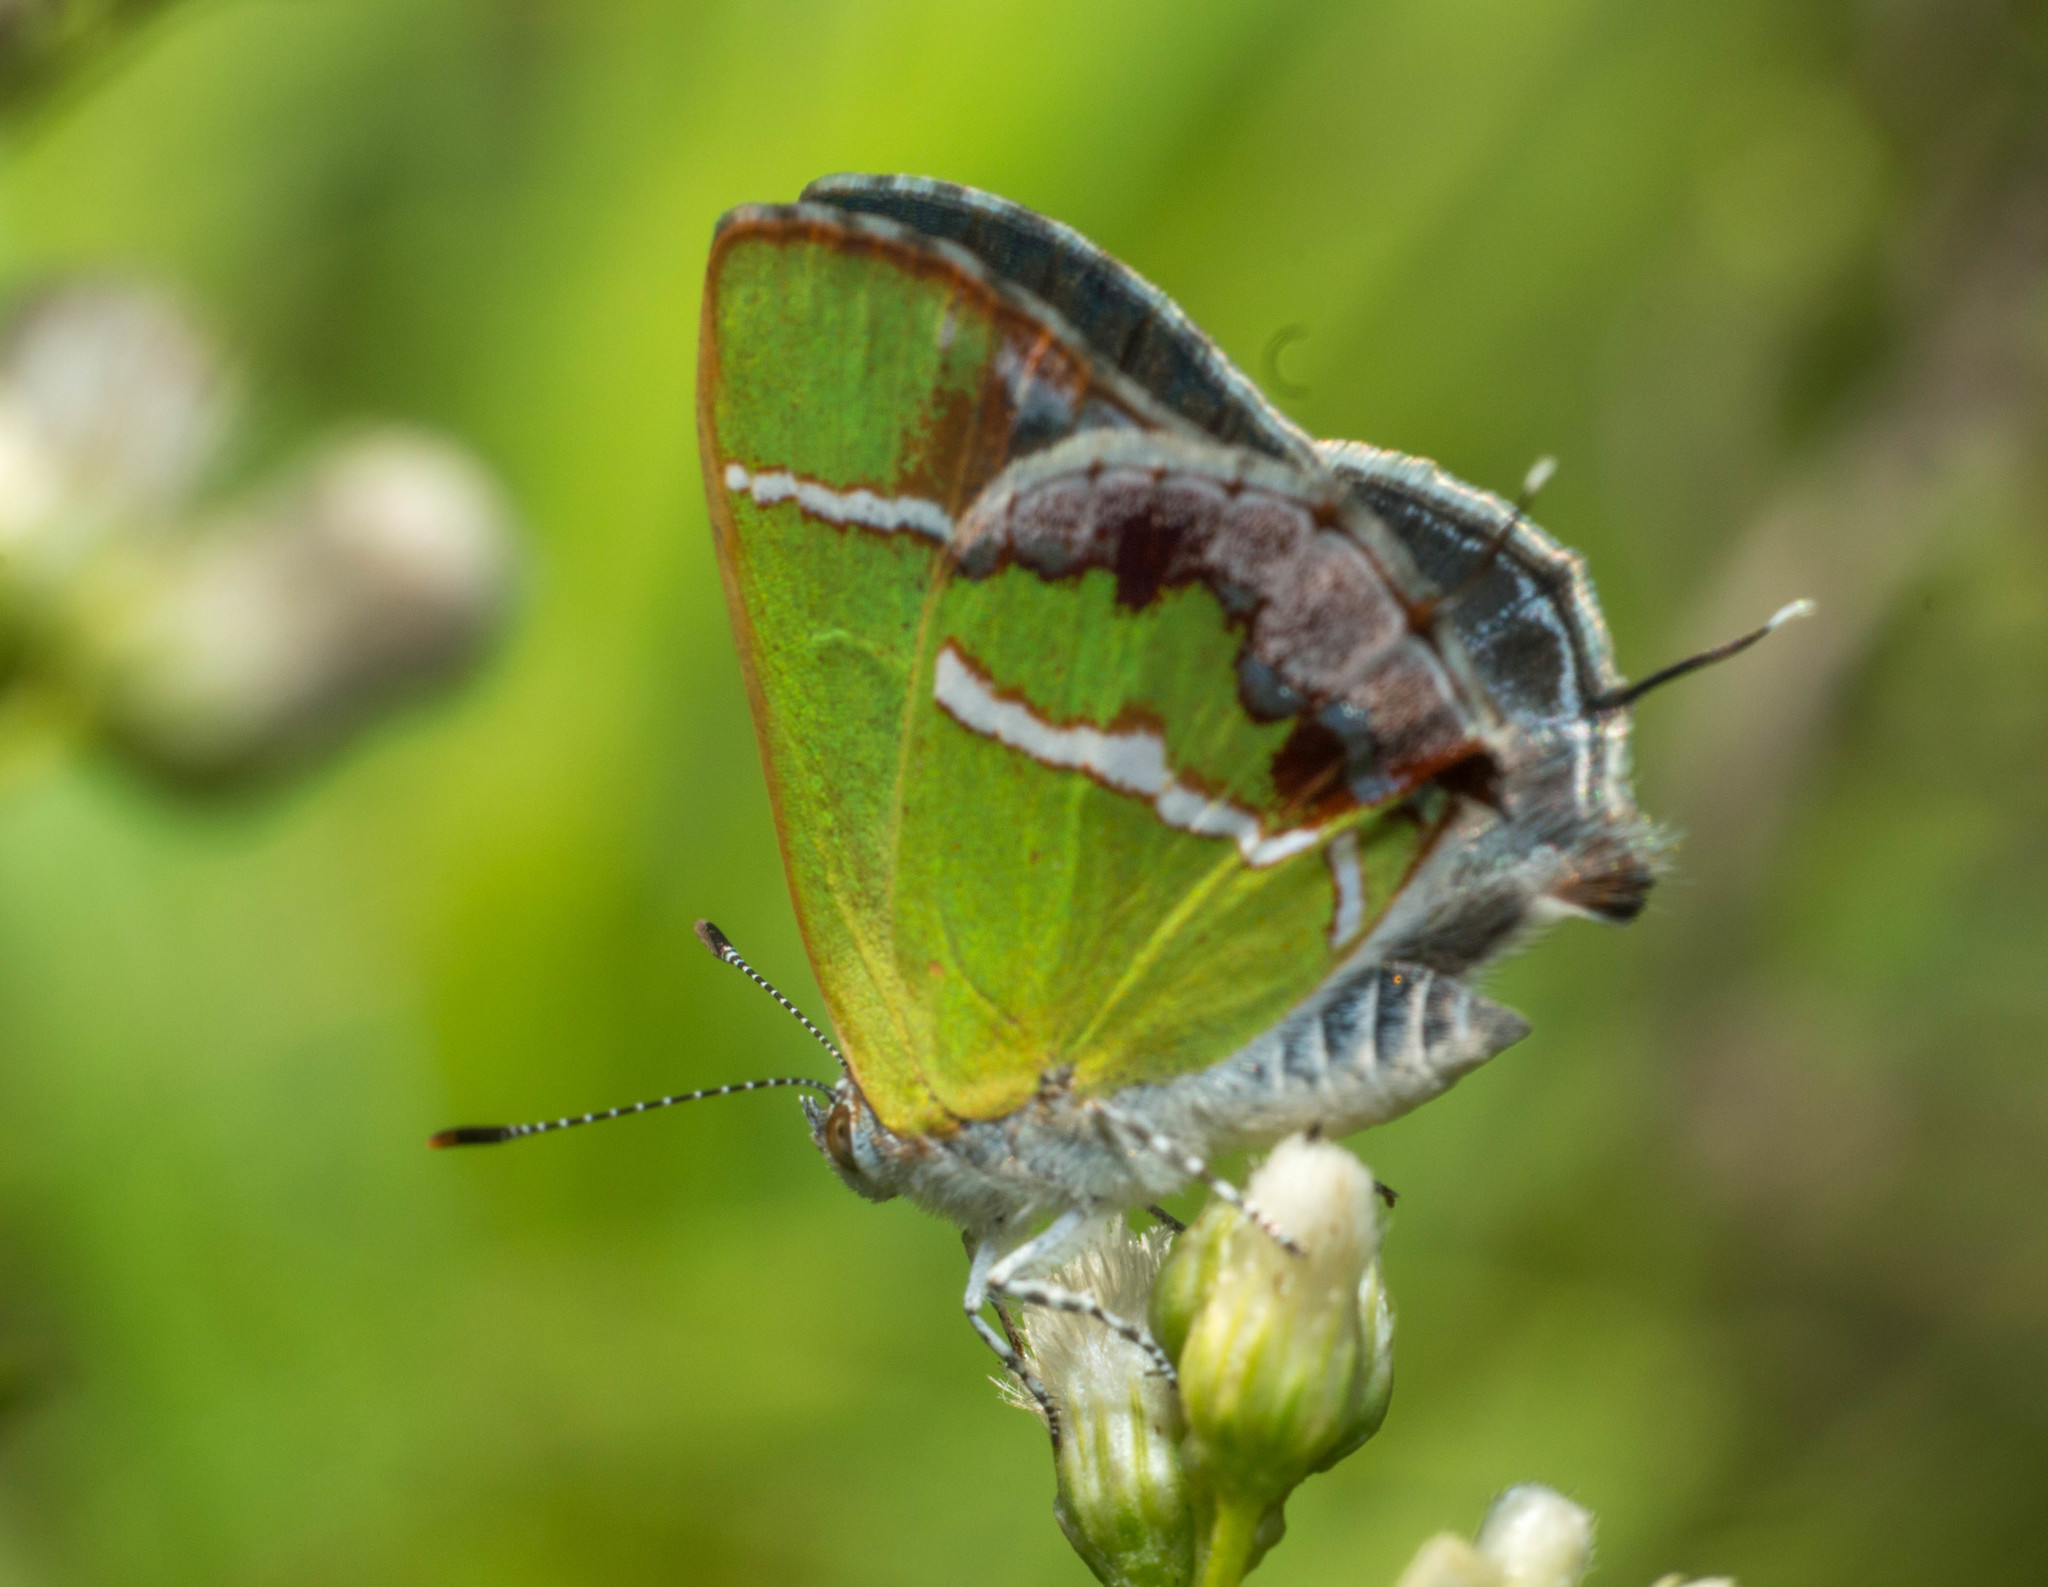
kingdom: Animalia
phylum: Arthropoda
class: Insecta
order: Lepidoptera
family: Lycaenidae
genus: Chlorostrymon
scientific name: Chlorostrymon simaethis
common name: Silver-banded hairstreak
